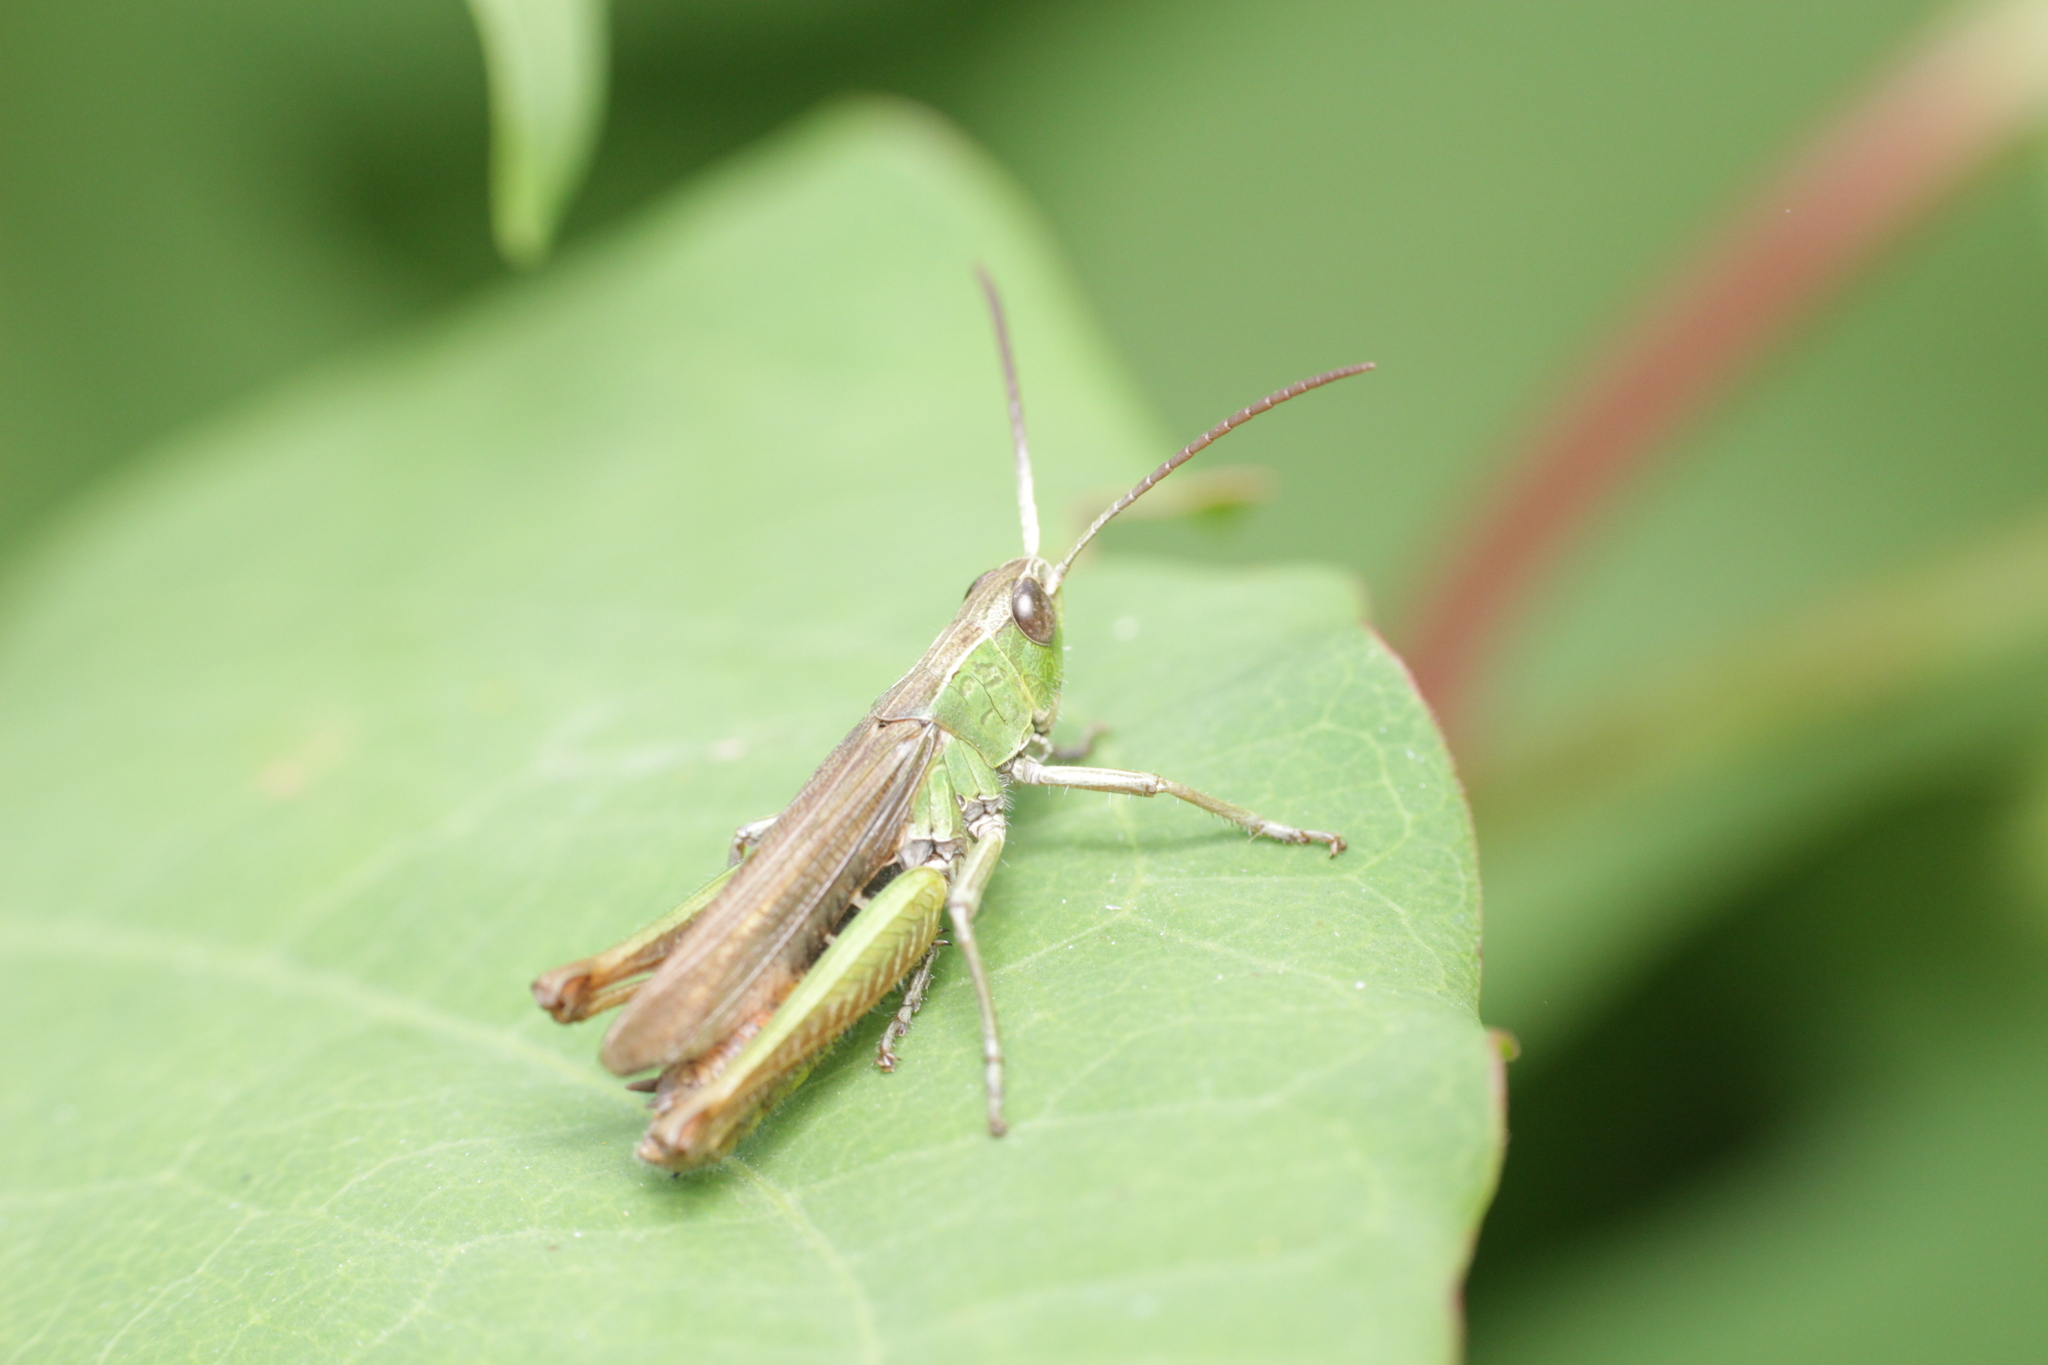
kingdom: Animalia
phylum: Arthropoda
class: Insecta
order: Orthoptera
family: Acrididae
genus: Chorthippus
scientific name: Chorthippus dorsatus
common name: Steppe grasshopper
